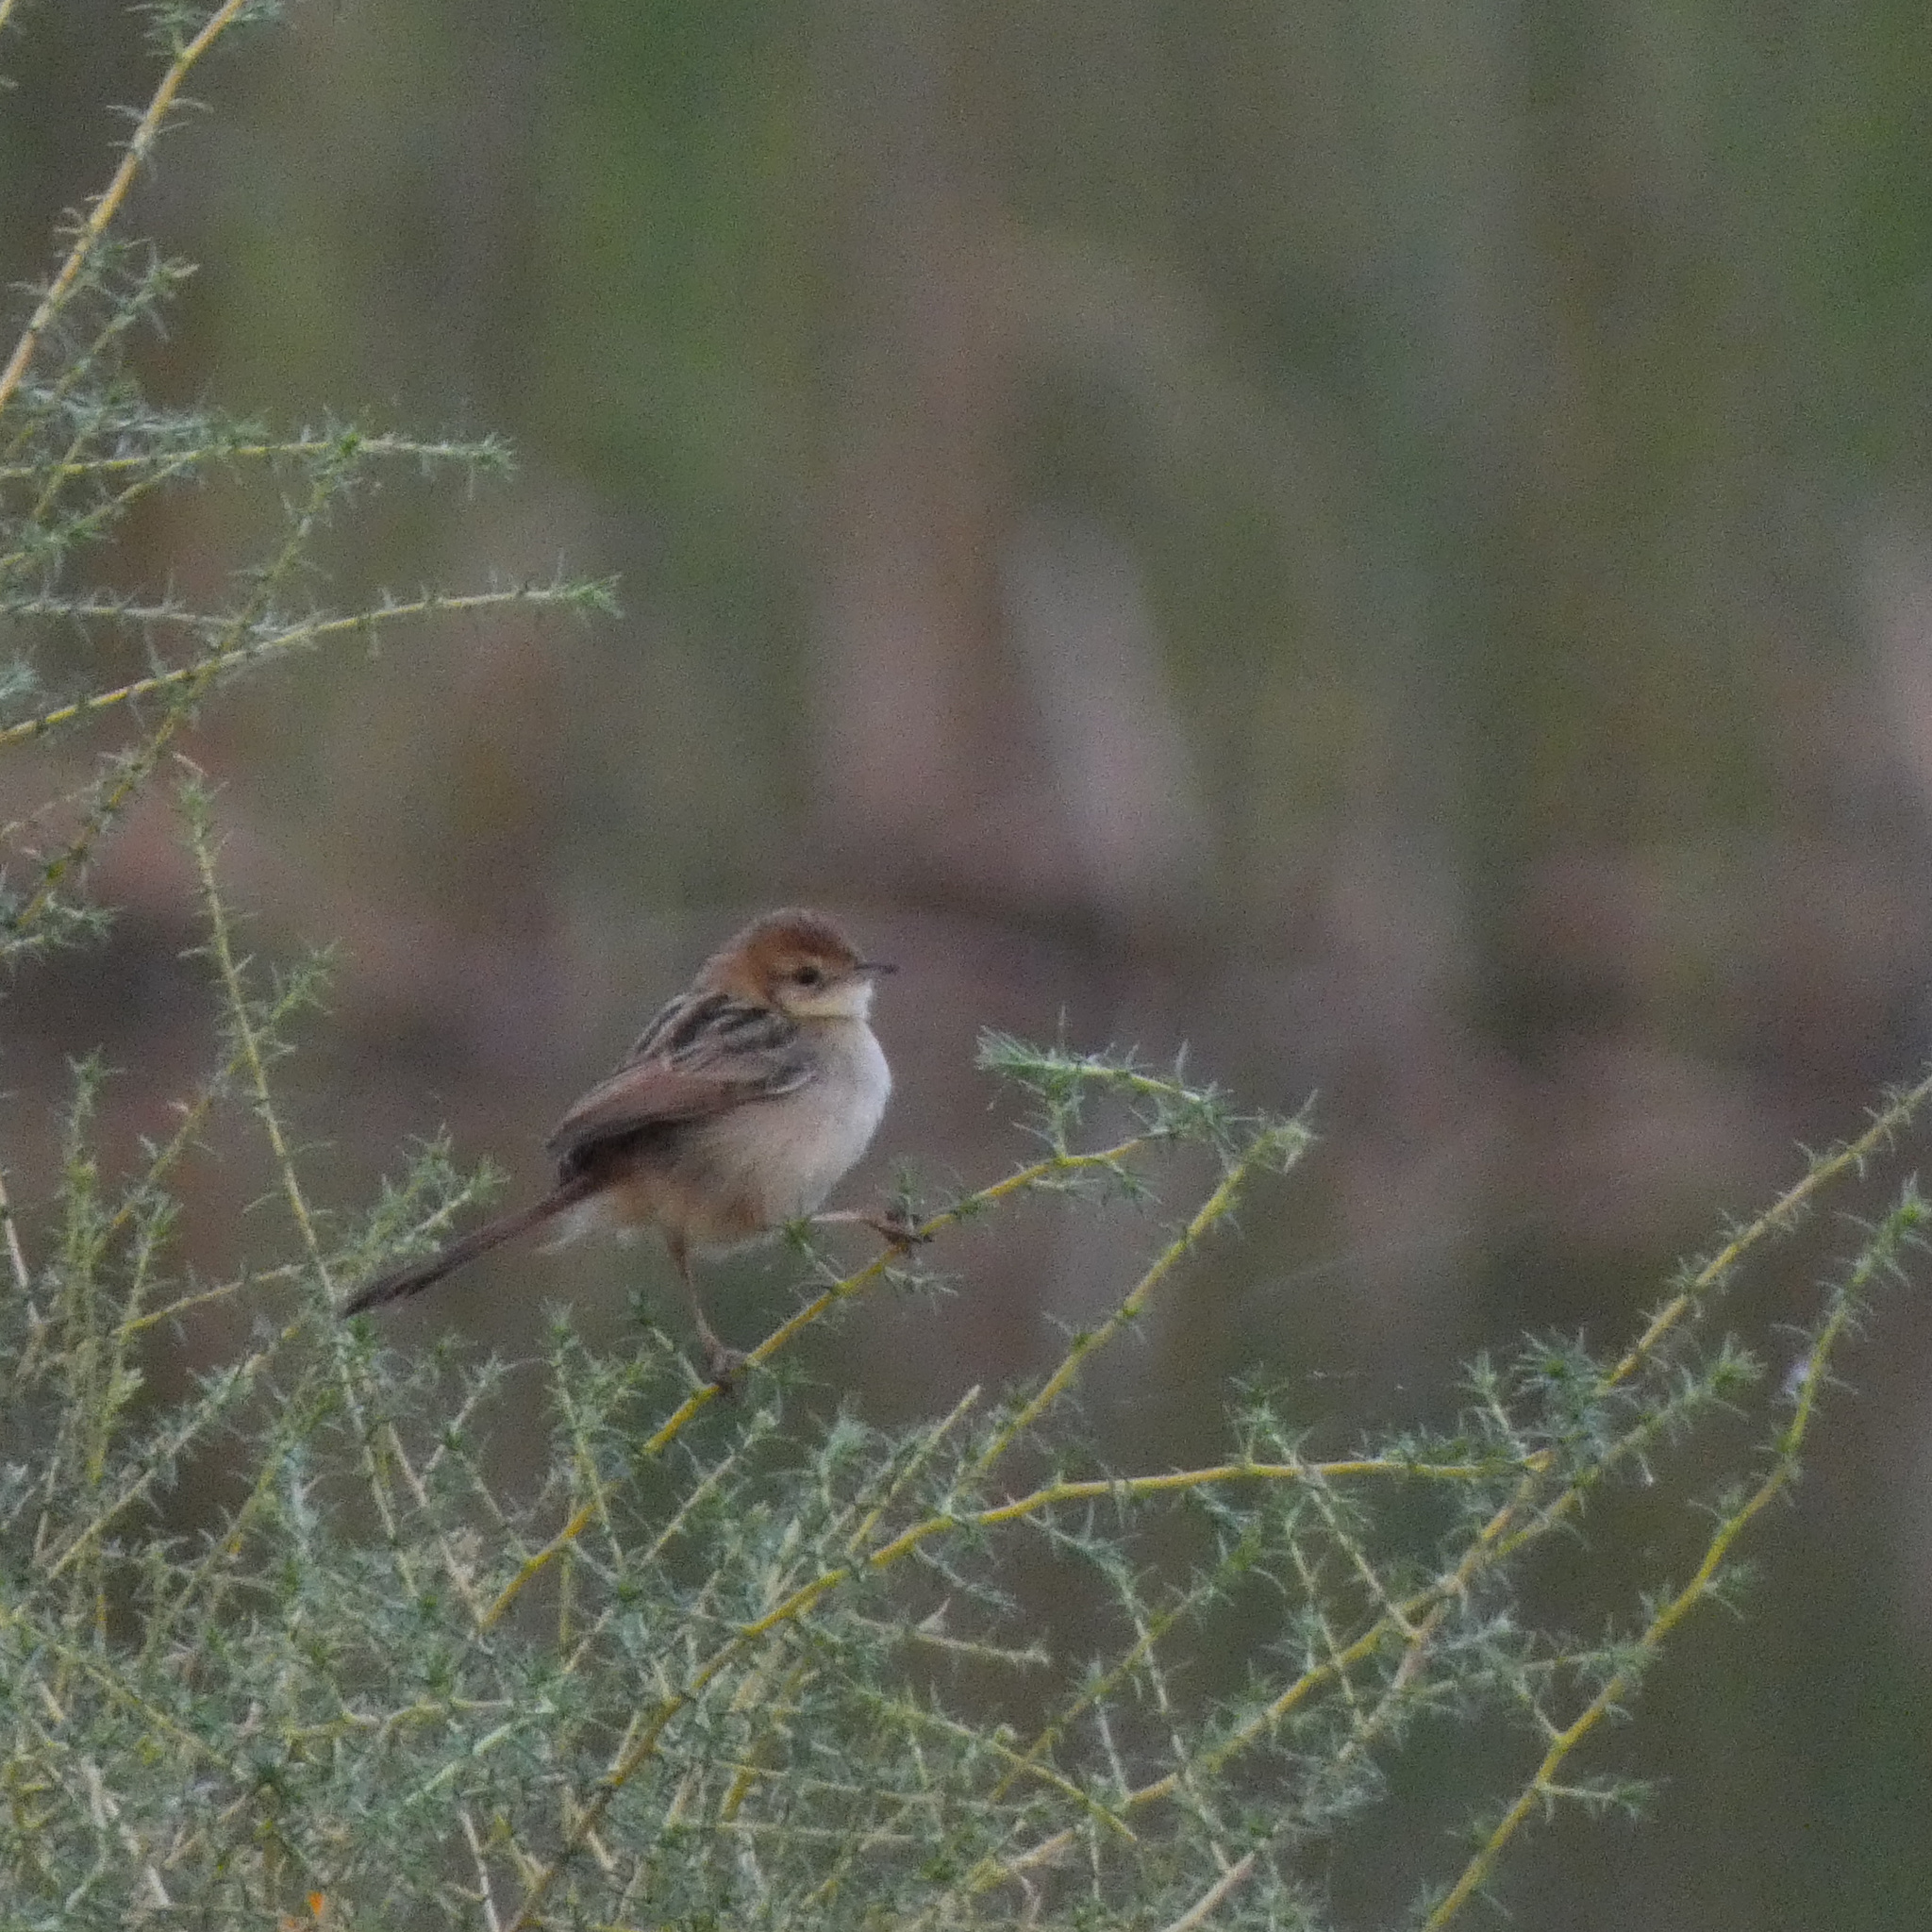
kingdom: Animalia
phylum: Chordata
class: Aves
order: Passeriformes
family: Cisticolidae
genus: Cisticola
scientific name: Cisticola tinniens
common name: Levaillant's cisticola
